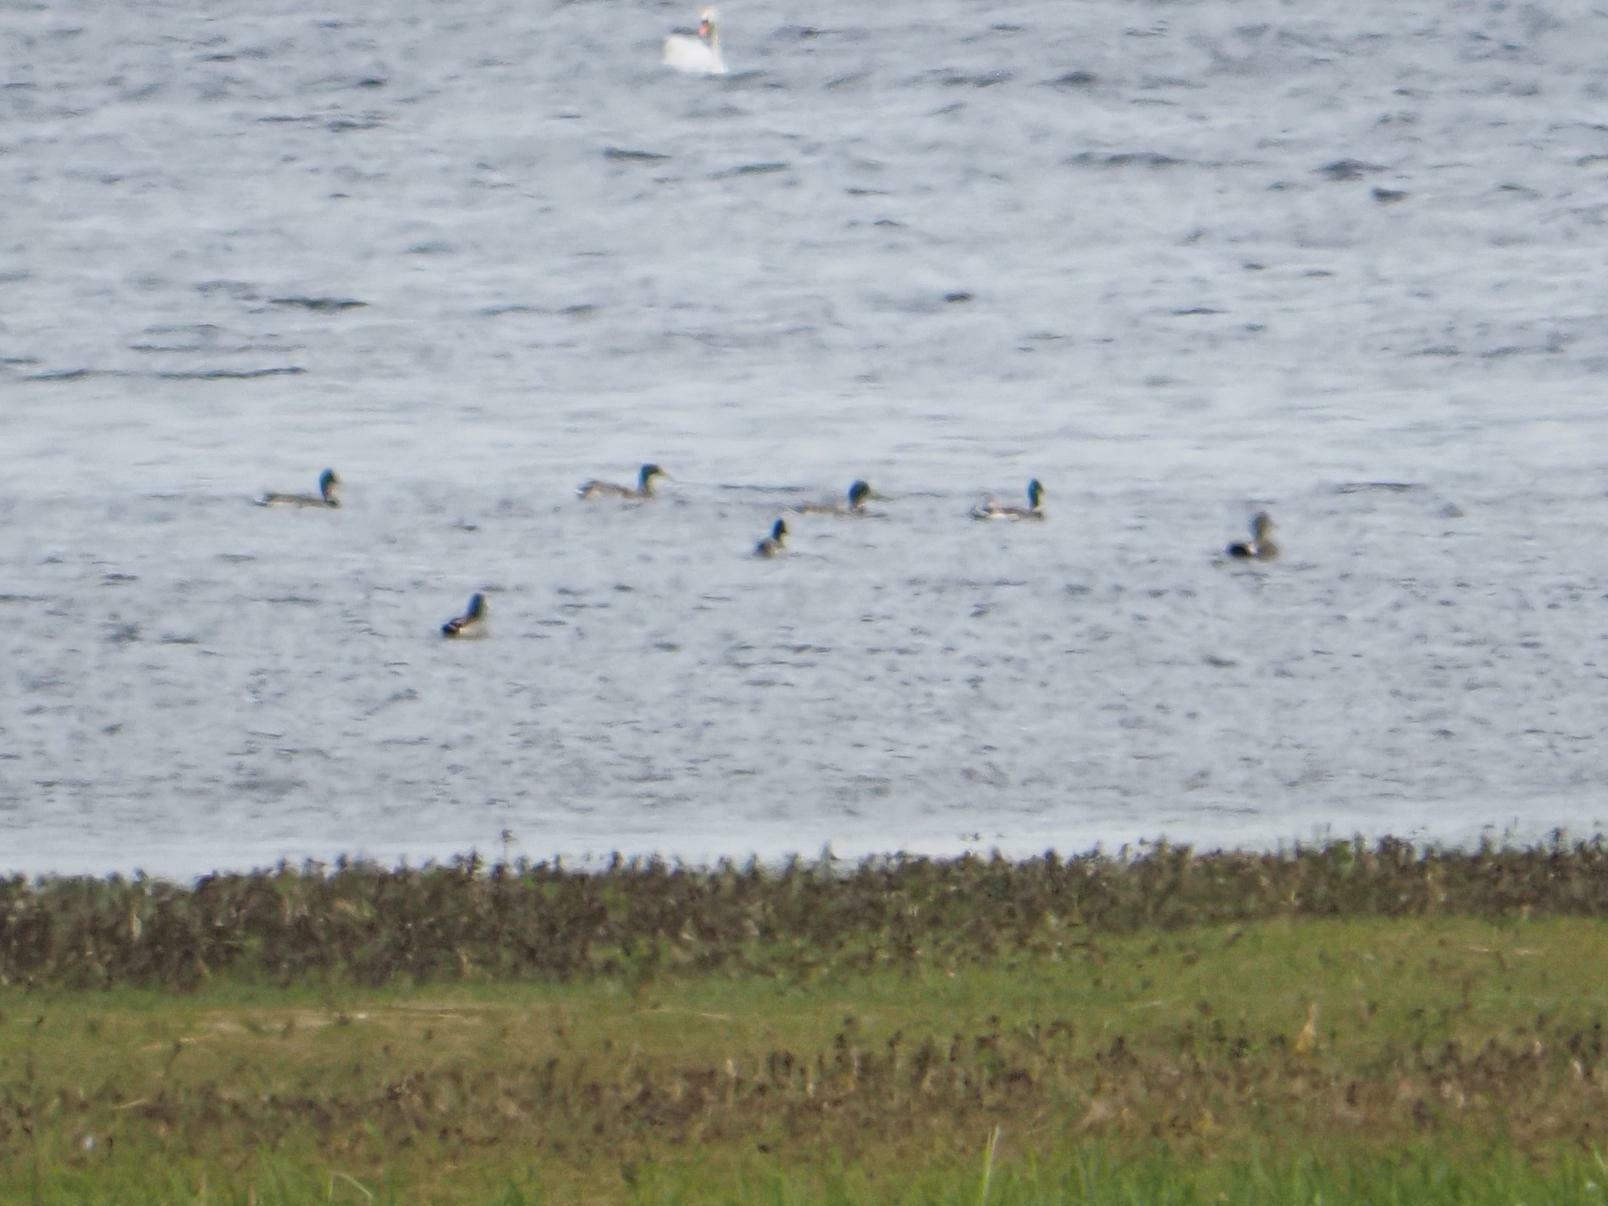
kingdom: Animalia
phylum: Chordata
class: Aves
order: Anseriformes
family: Anatidae
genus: Anas
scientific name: Anas platyrhynchos
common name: Mallard
